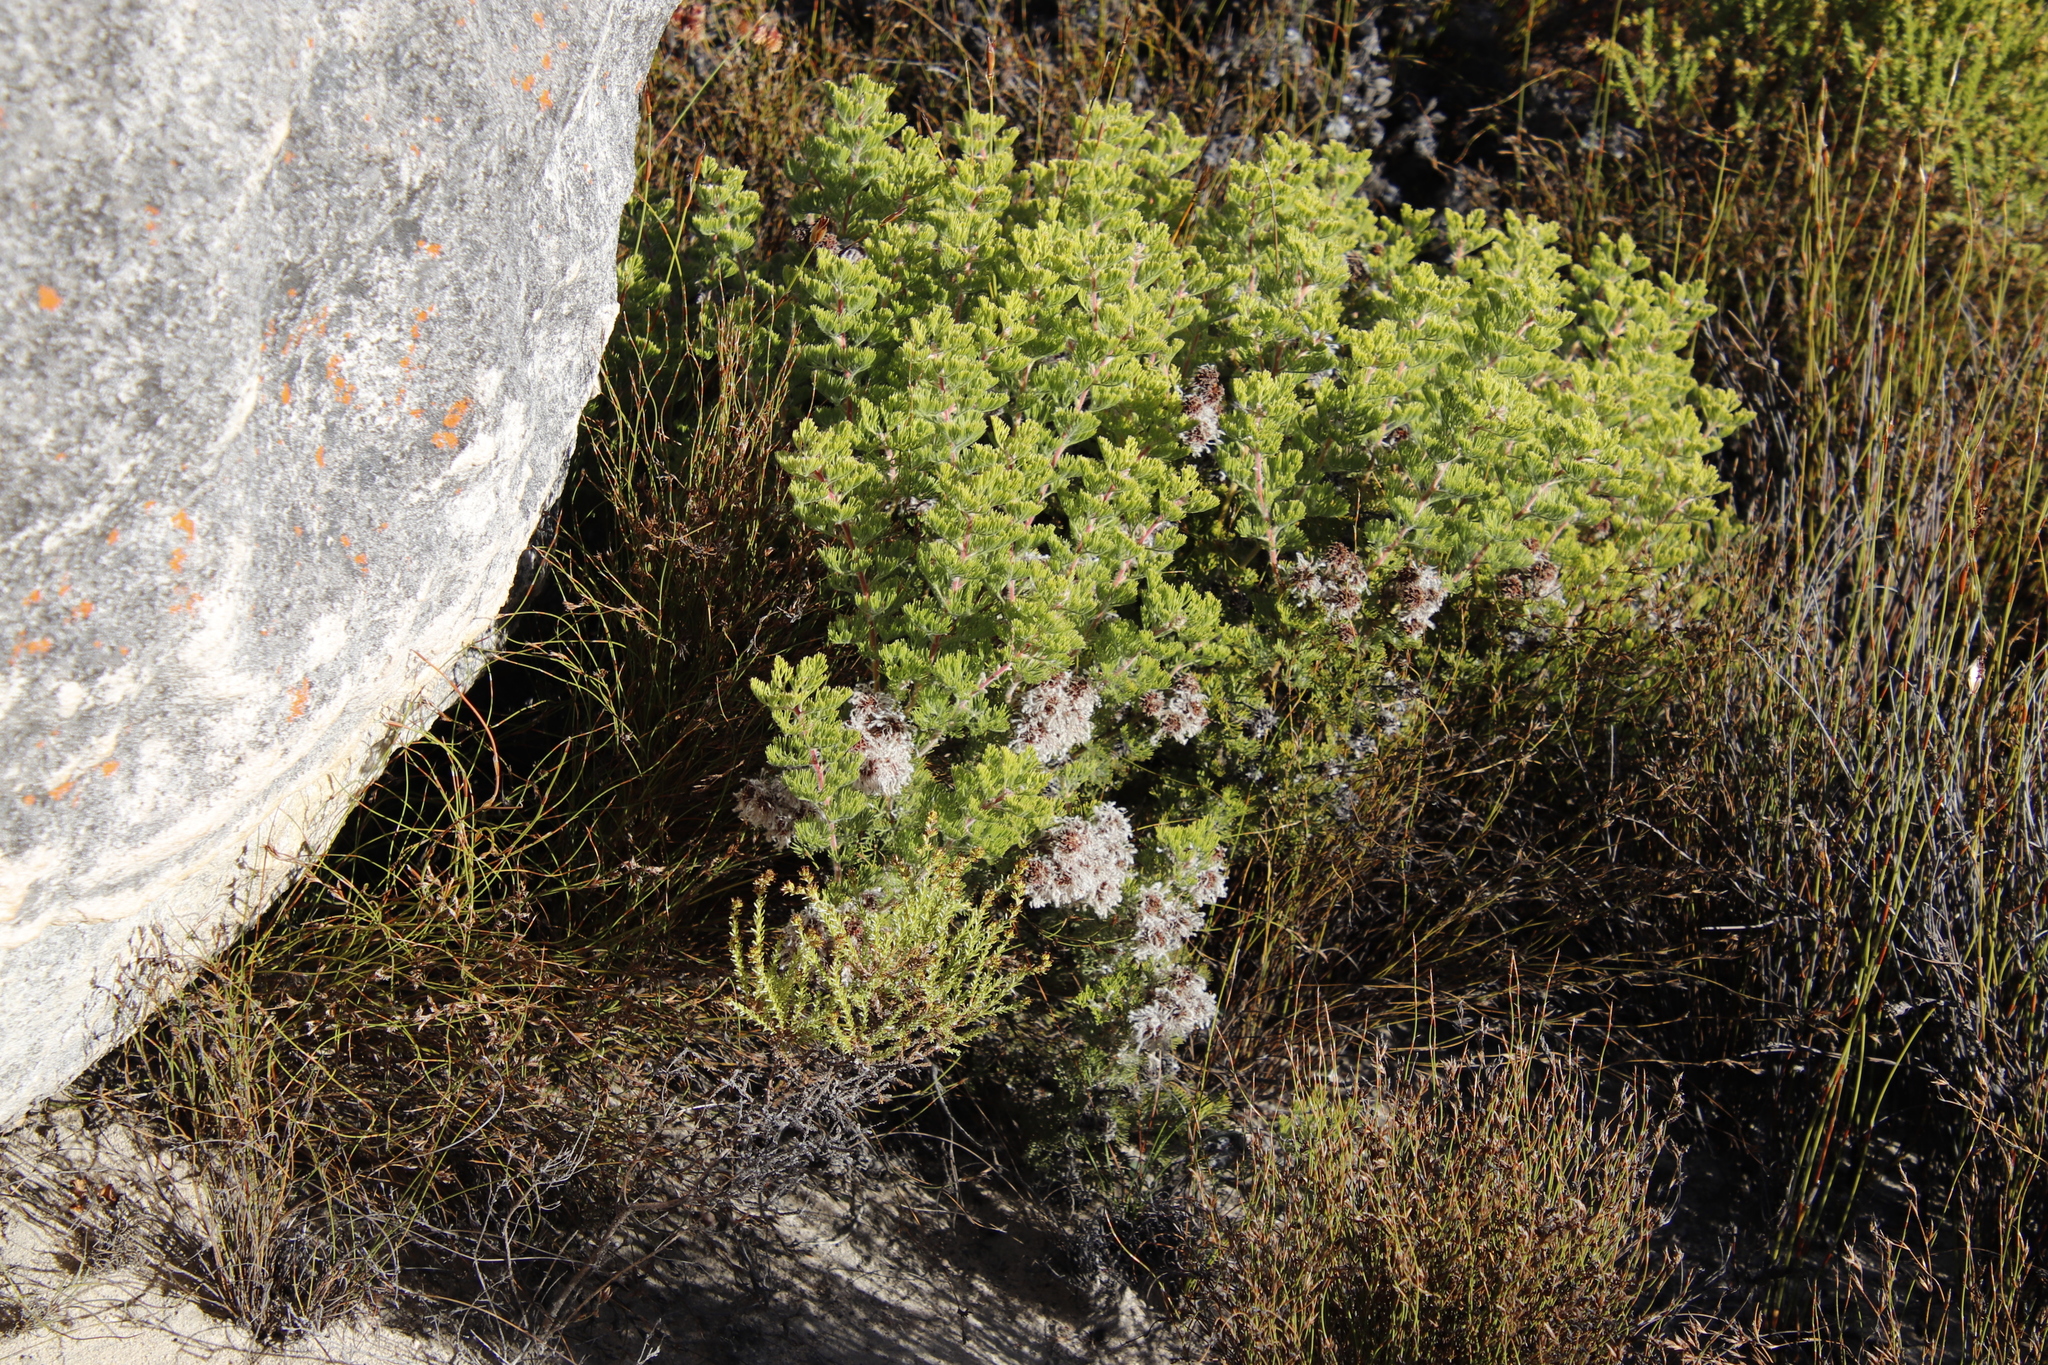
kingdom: Plantae
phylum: Tracheophyta
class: Magnoliopsida
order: Proteales
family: Proteaceae
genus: Serruria
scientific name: Serruria aitonii
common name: Marshmallow spiderhead
